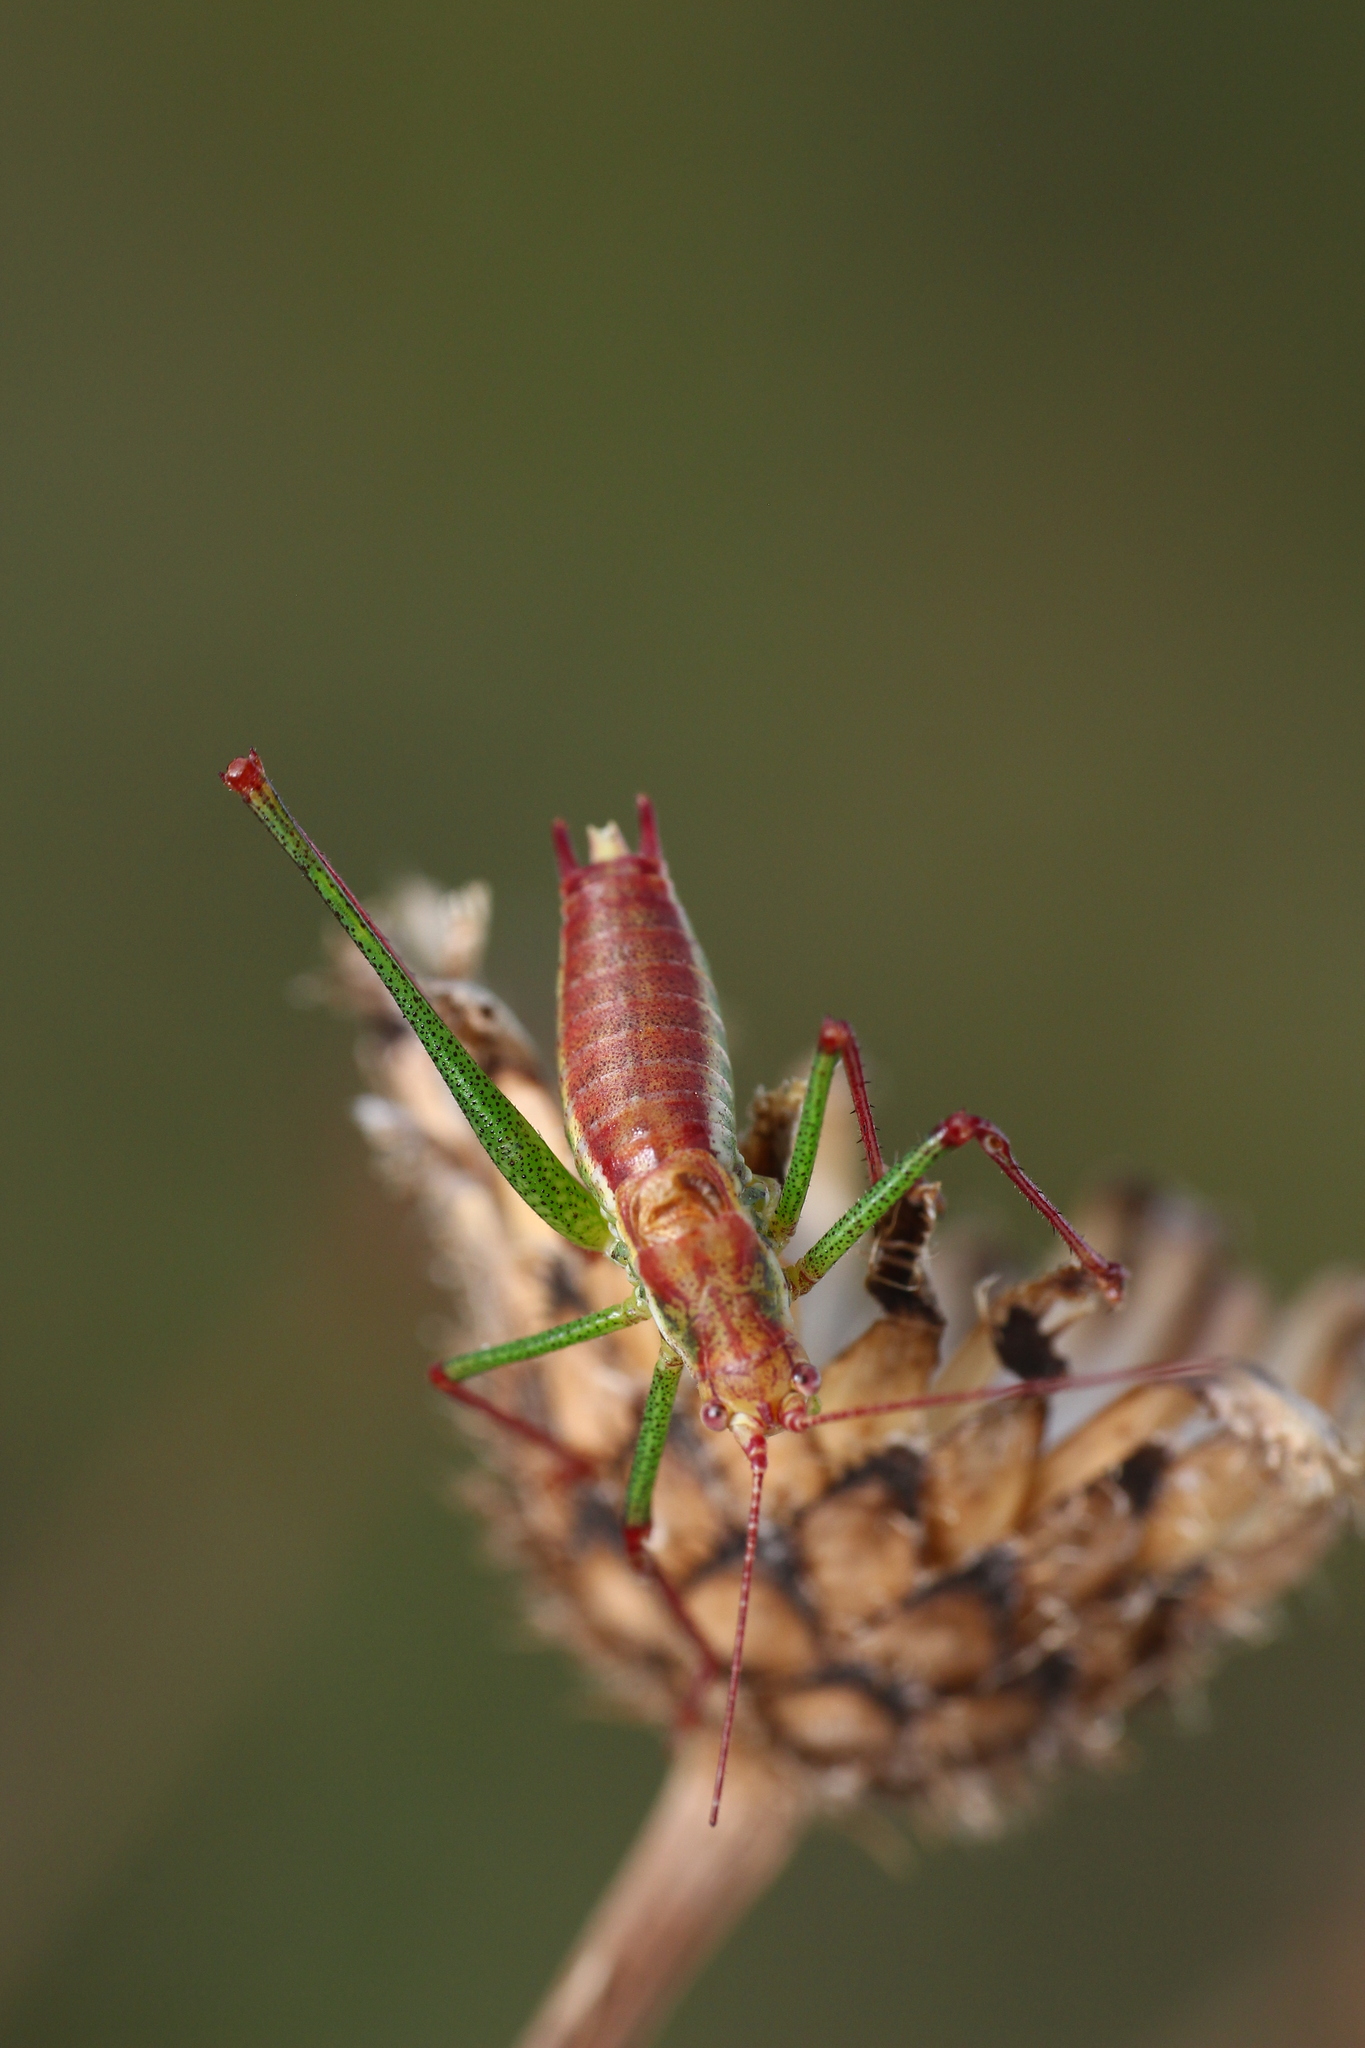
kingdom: Animalia
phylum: Arthropoda
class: Insecta
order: Orthoptera
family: Tettigoniidae
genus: Leptophyes
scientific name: Leptophyes albovittata
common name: Striped bush-cricket
